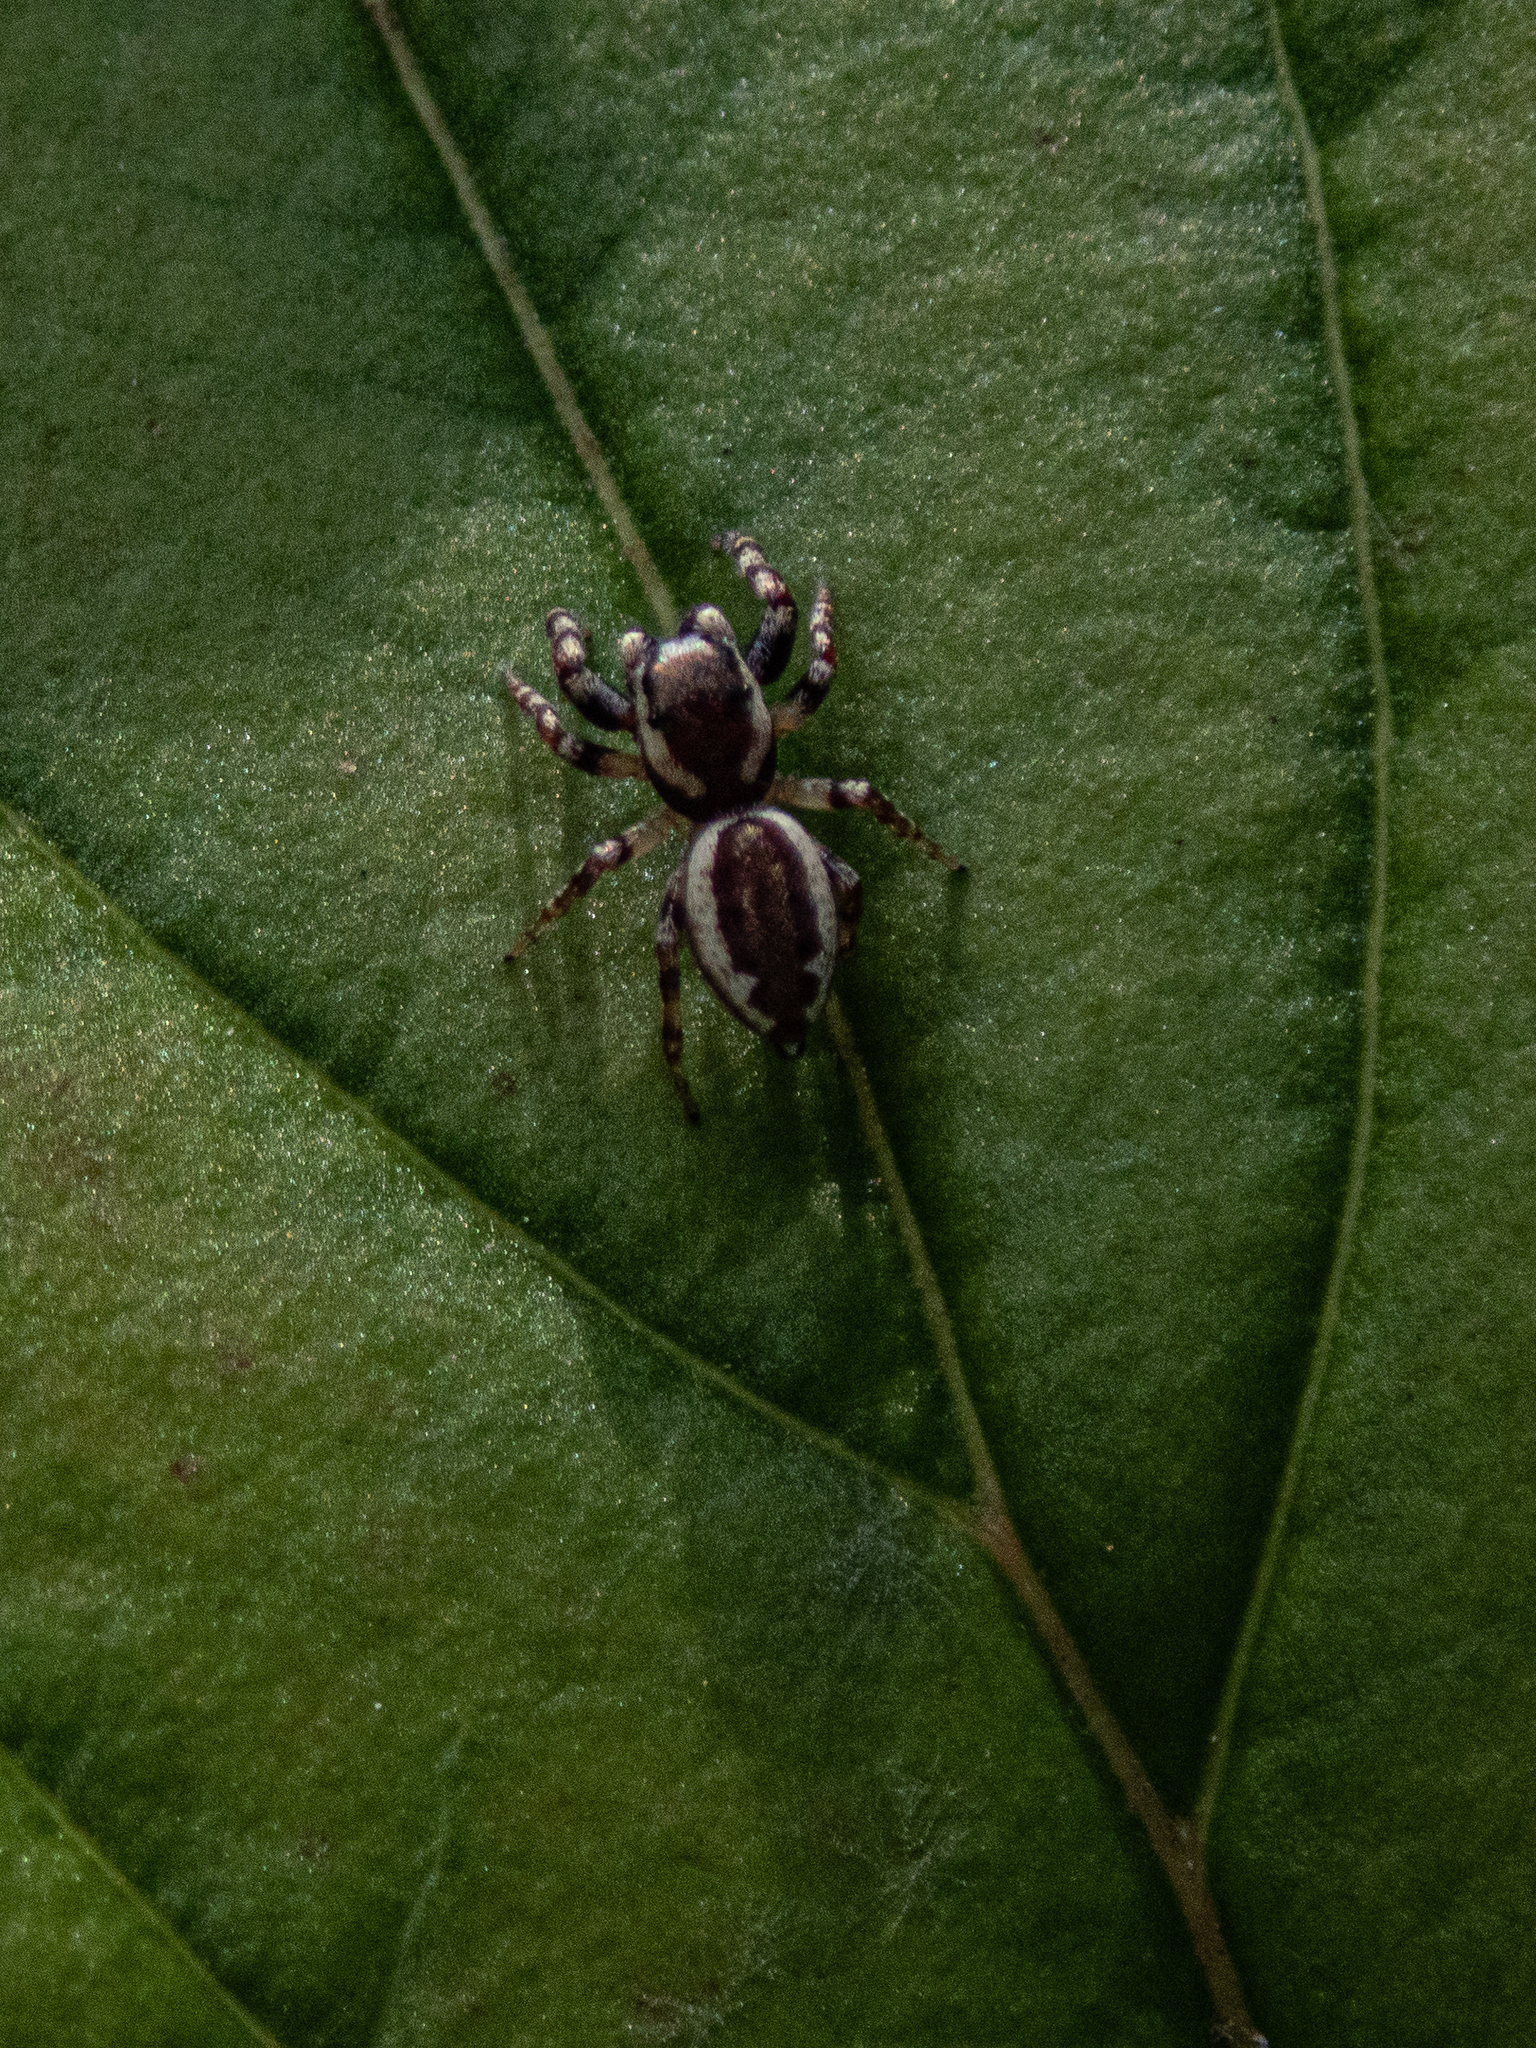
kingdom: Animalia
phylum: Arthropoda
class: Arachnida
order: Araneae
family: Salticidae
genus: Pelegrina
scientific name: Pelegrina proterva
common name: Common white-cheeked jumping spider
